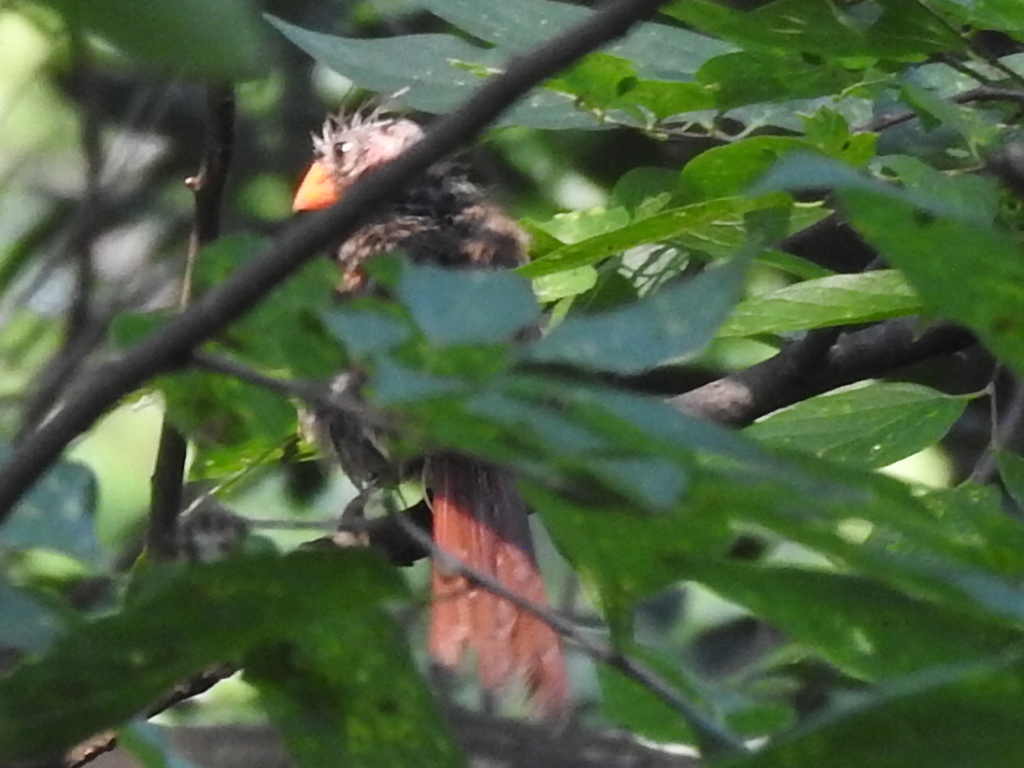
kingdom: Animalia
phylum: Chordata
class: Aves
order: Passeriformes
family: Cardinalidae
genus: Cardinalis
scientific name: Cardinalis cardinalis
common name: Northern cardinal
